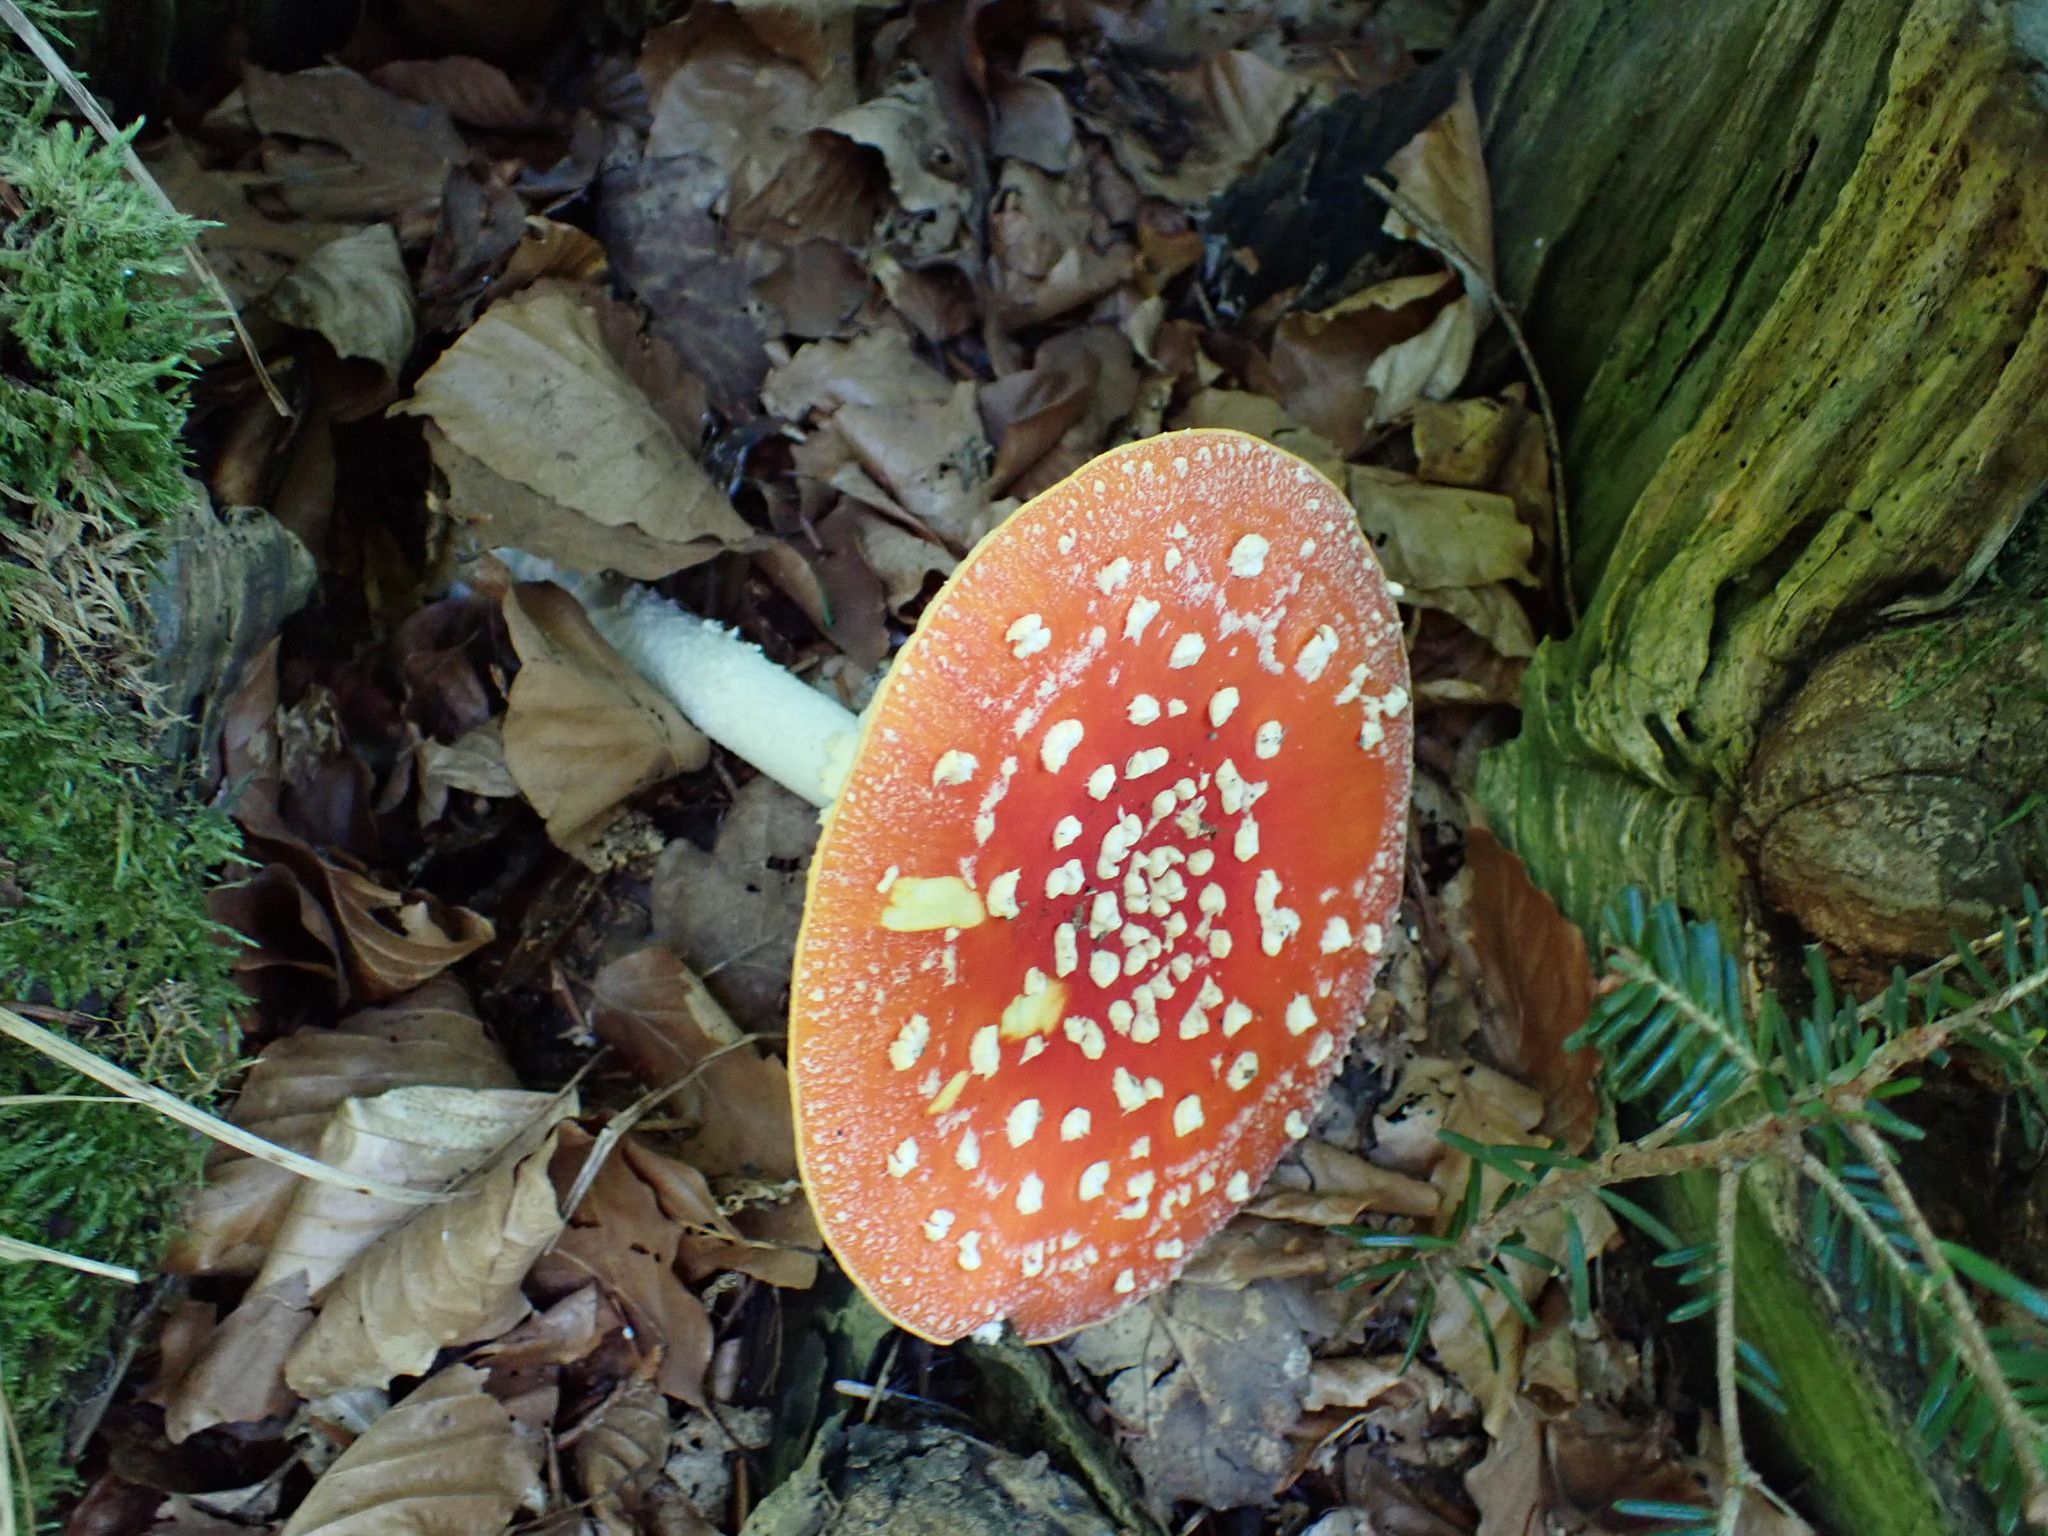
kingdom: Fungi
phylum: Basidiomycota
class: Agaricomycetes
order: Agaricales
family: Amanitaceae
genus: Amanita
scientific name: Amanita muscaria
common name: Fly agaric
